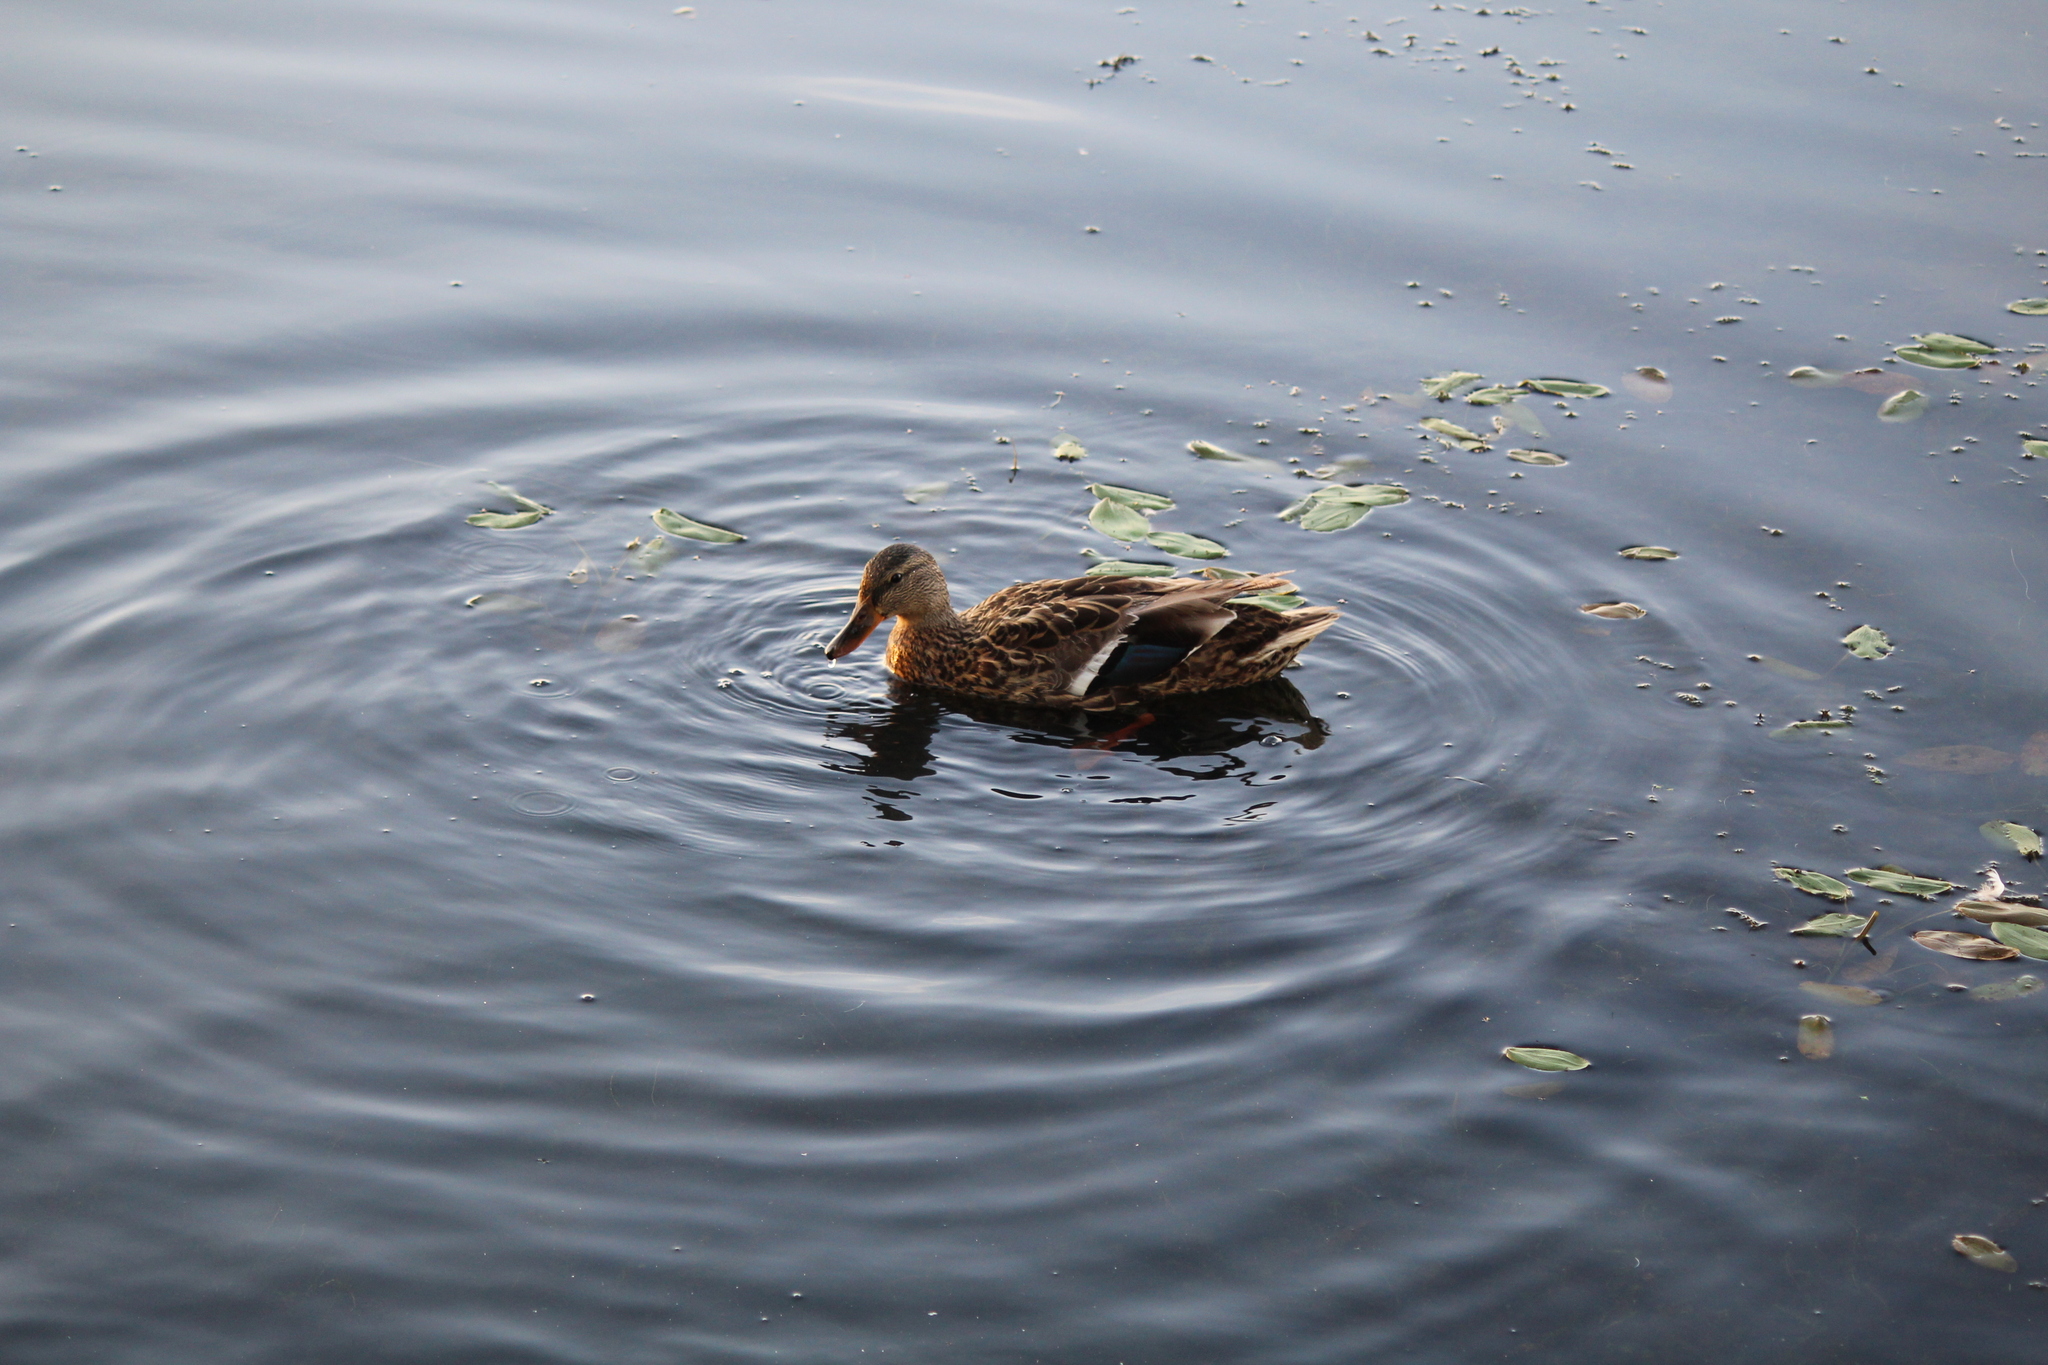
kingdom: Animalia
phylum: Chordata
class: Aves
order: Anseriformes
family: Anatidae
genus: Anas
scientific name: Anas platyrhynchos
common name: Mallard
